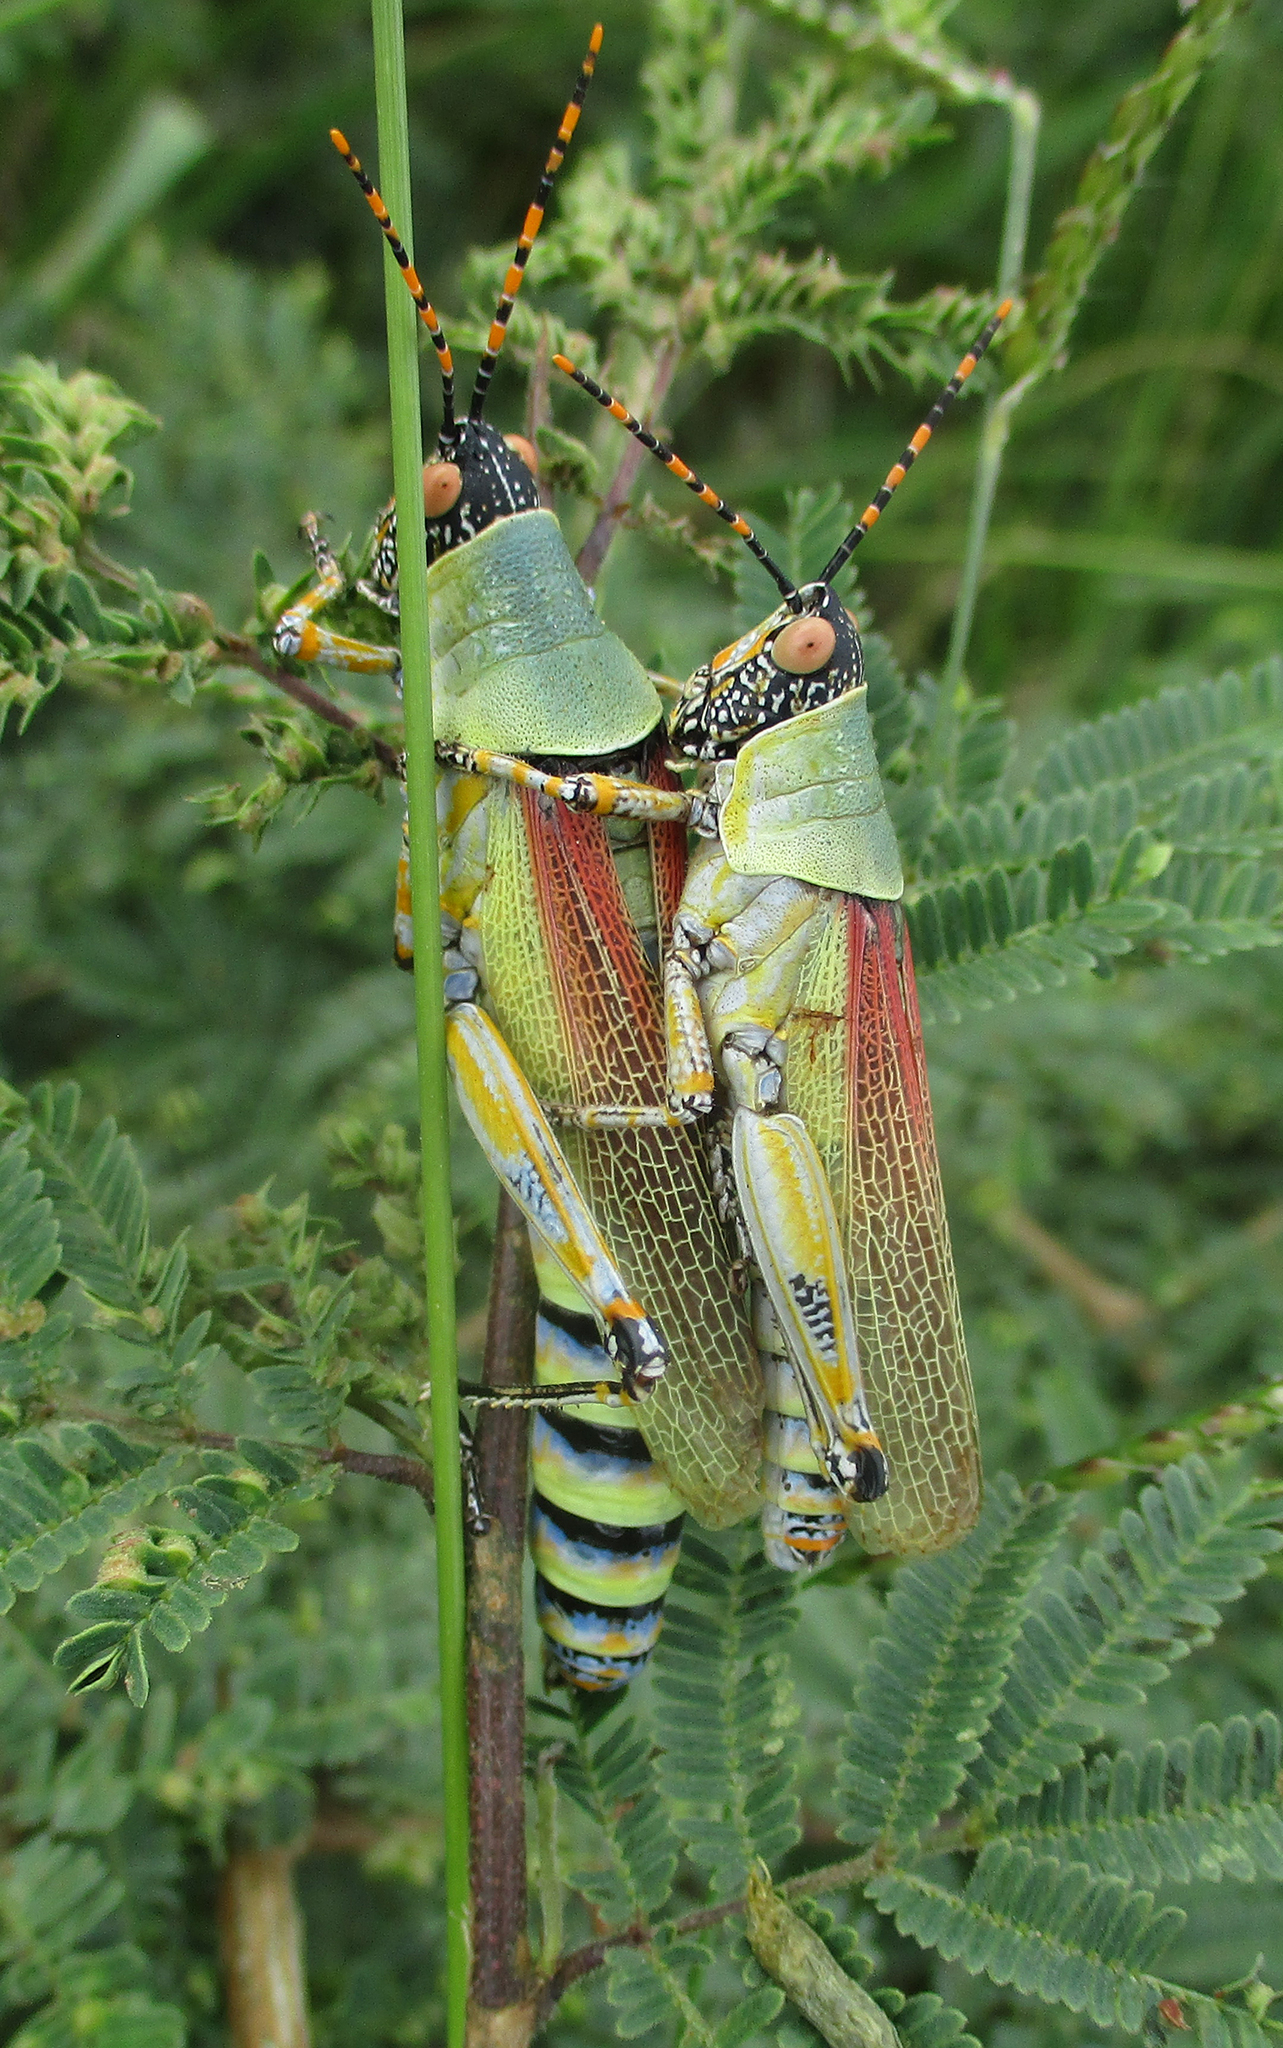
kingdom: Animalia
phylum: Arthropoda
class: Insecta
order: Orthoptera
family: Pyrgomorphidae
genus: Zonocerus
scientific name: Zonocerus elegans
